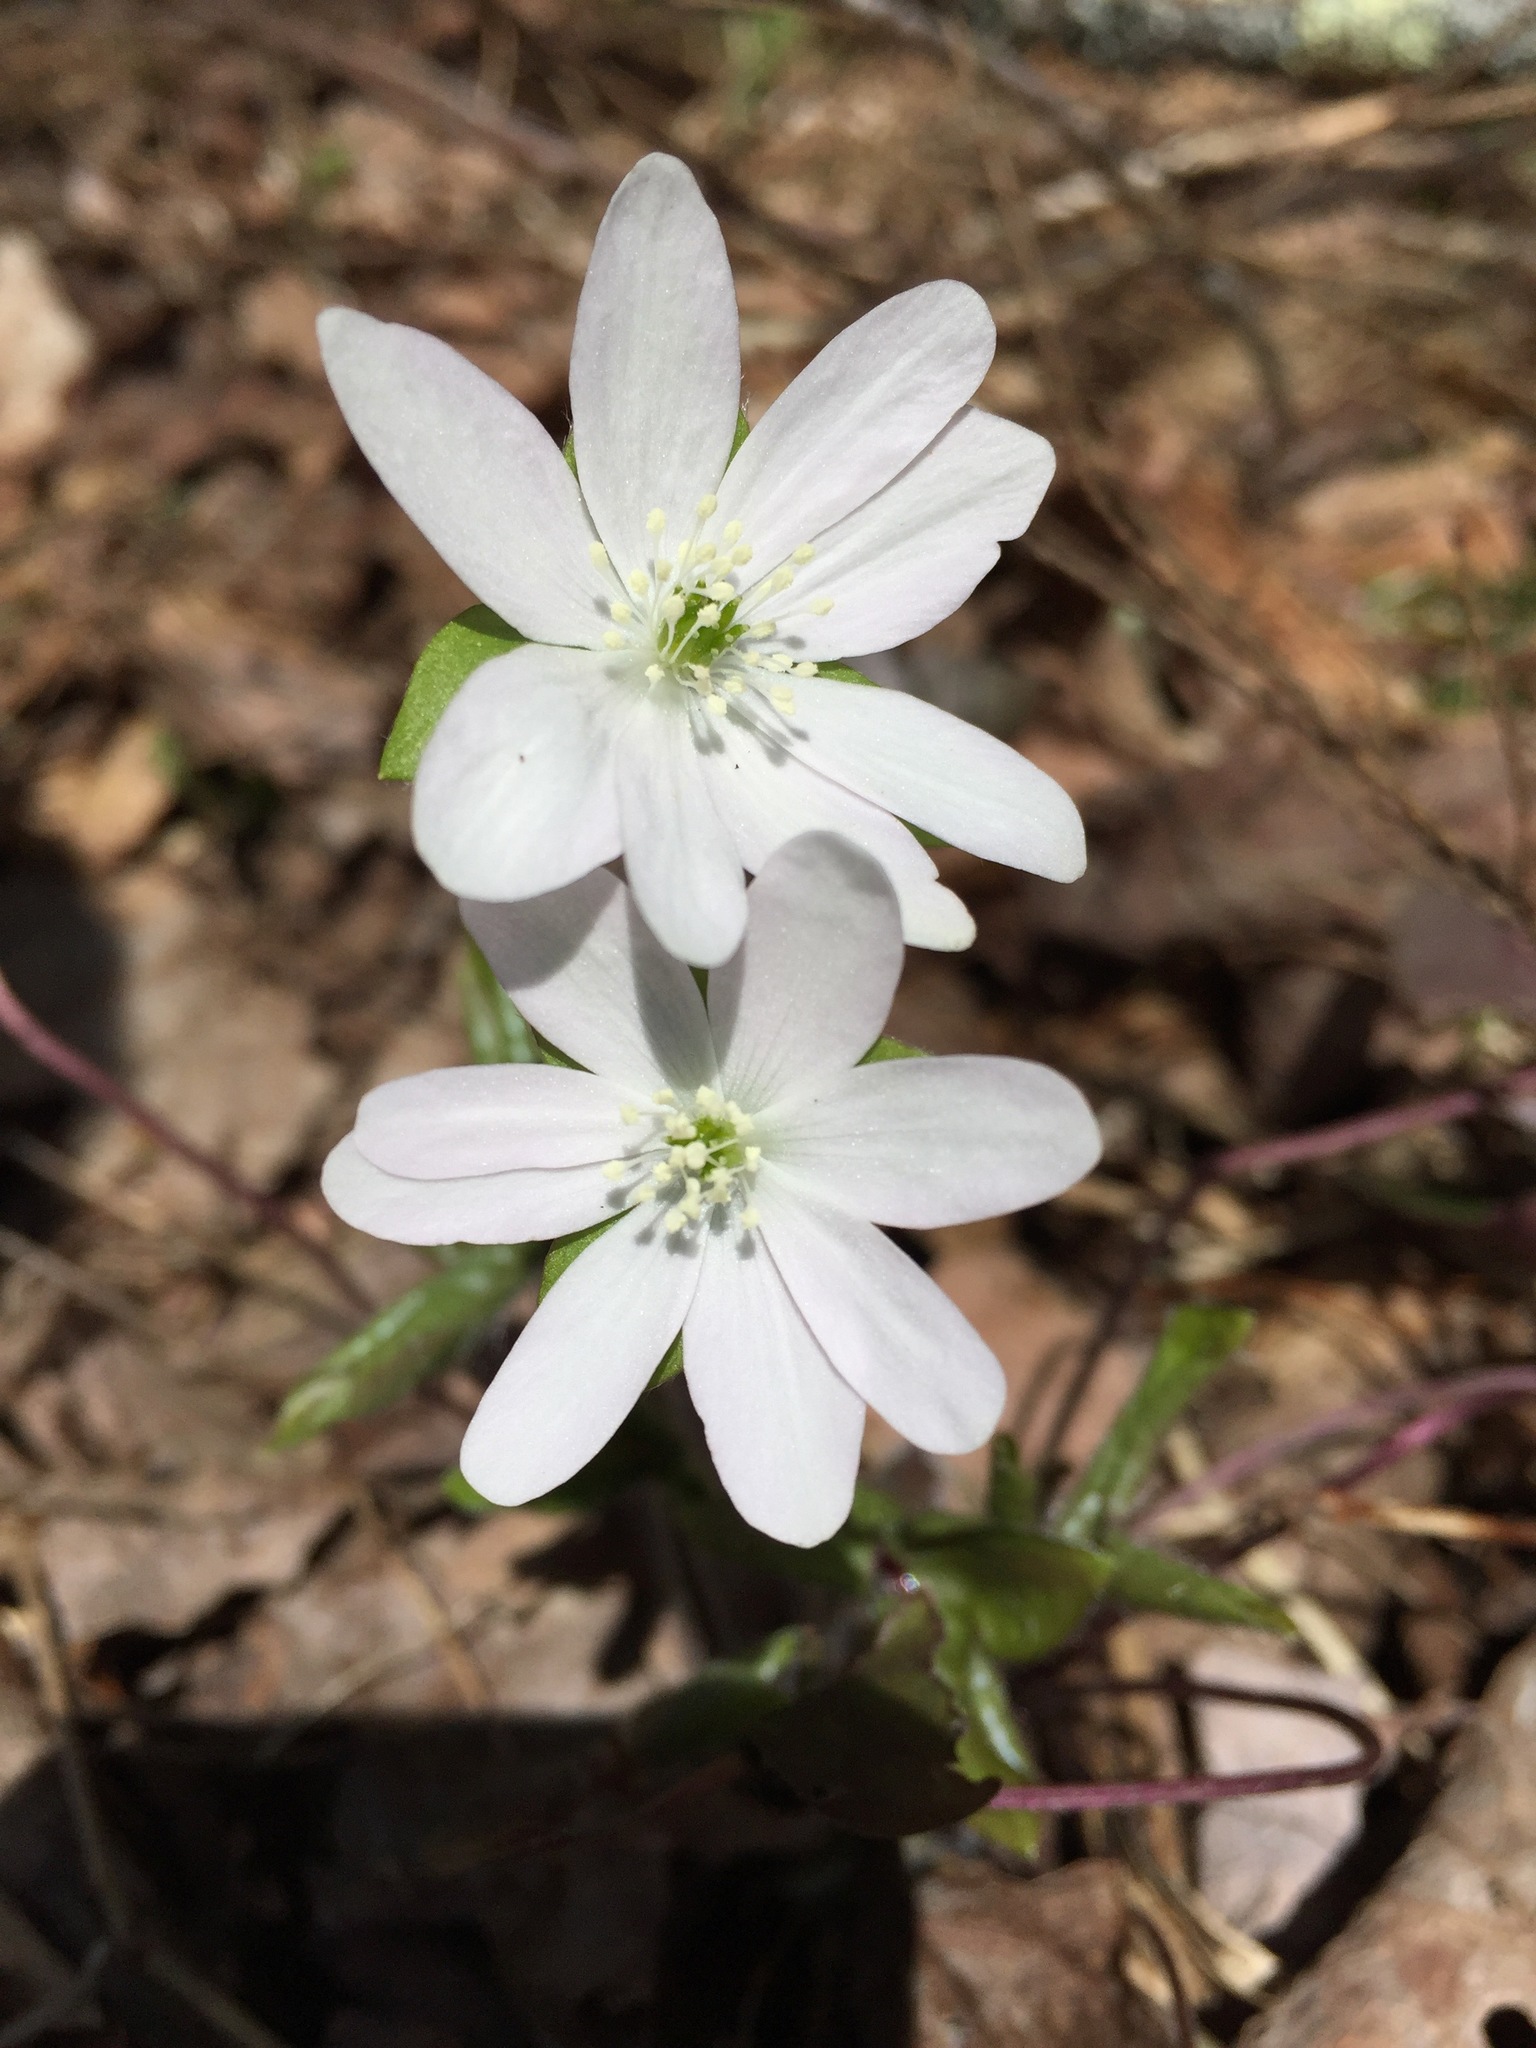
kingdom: Plantae
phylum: Tracheophyta
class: Magnoliopsida
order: Ranunculales
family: Ranunculaceae
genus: Hepatica
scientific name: Hepatica acutiloba
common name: Sharp-lobed hepatica
